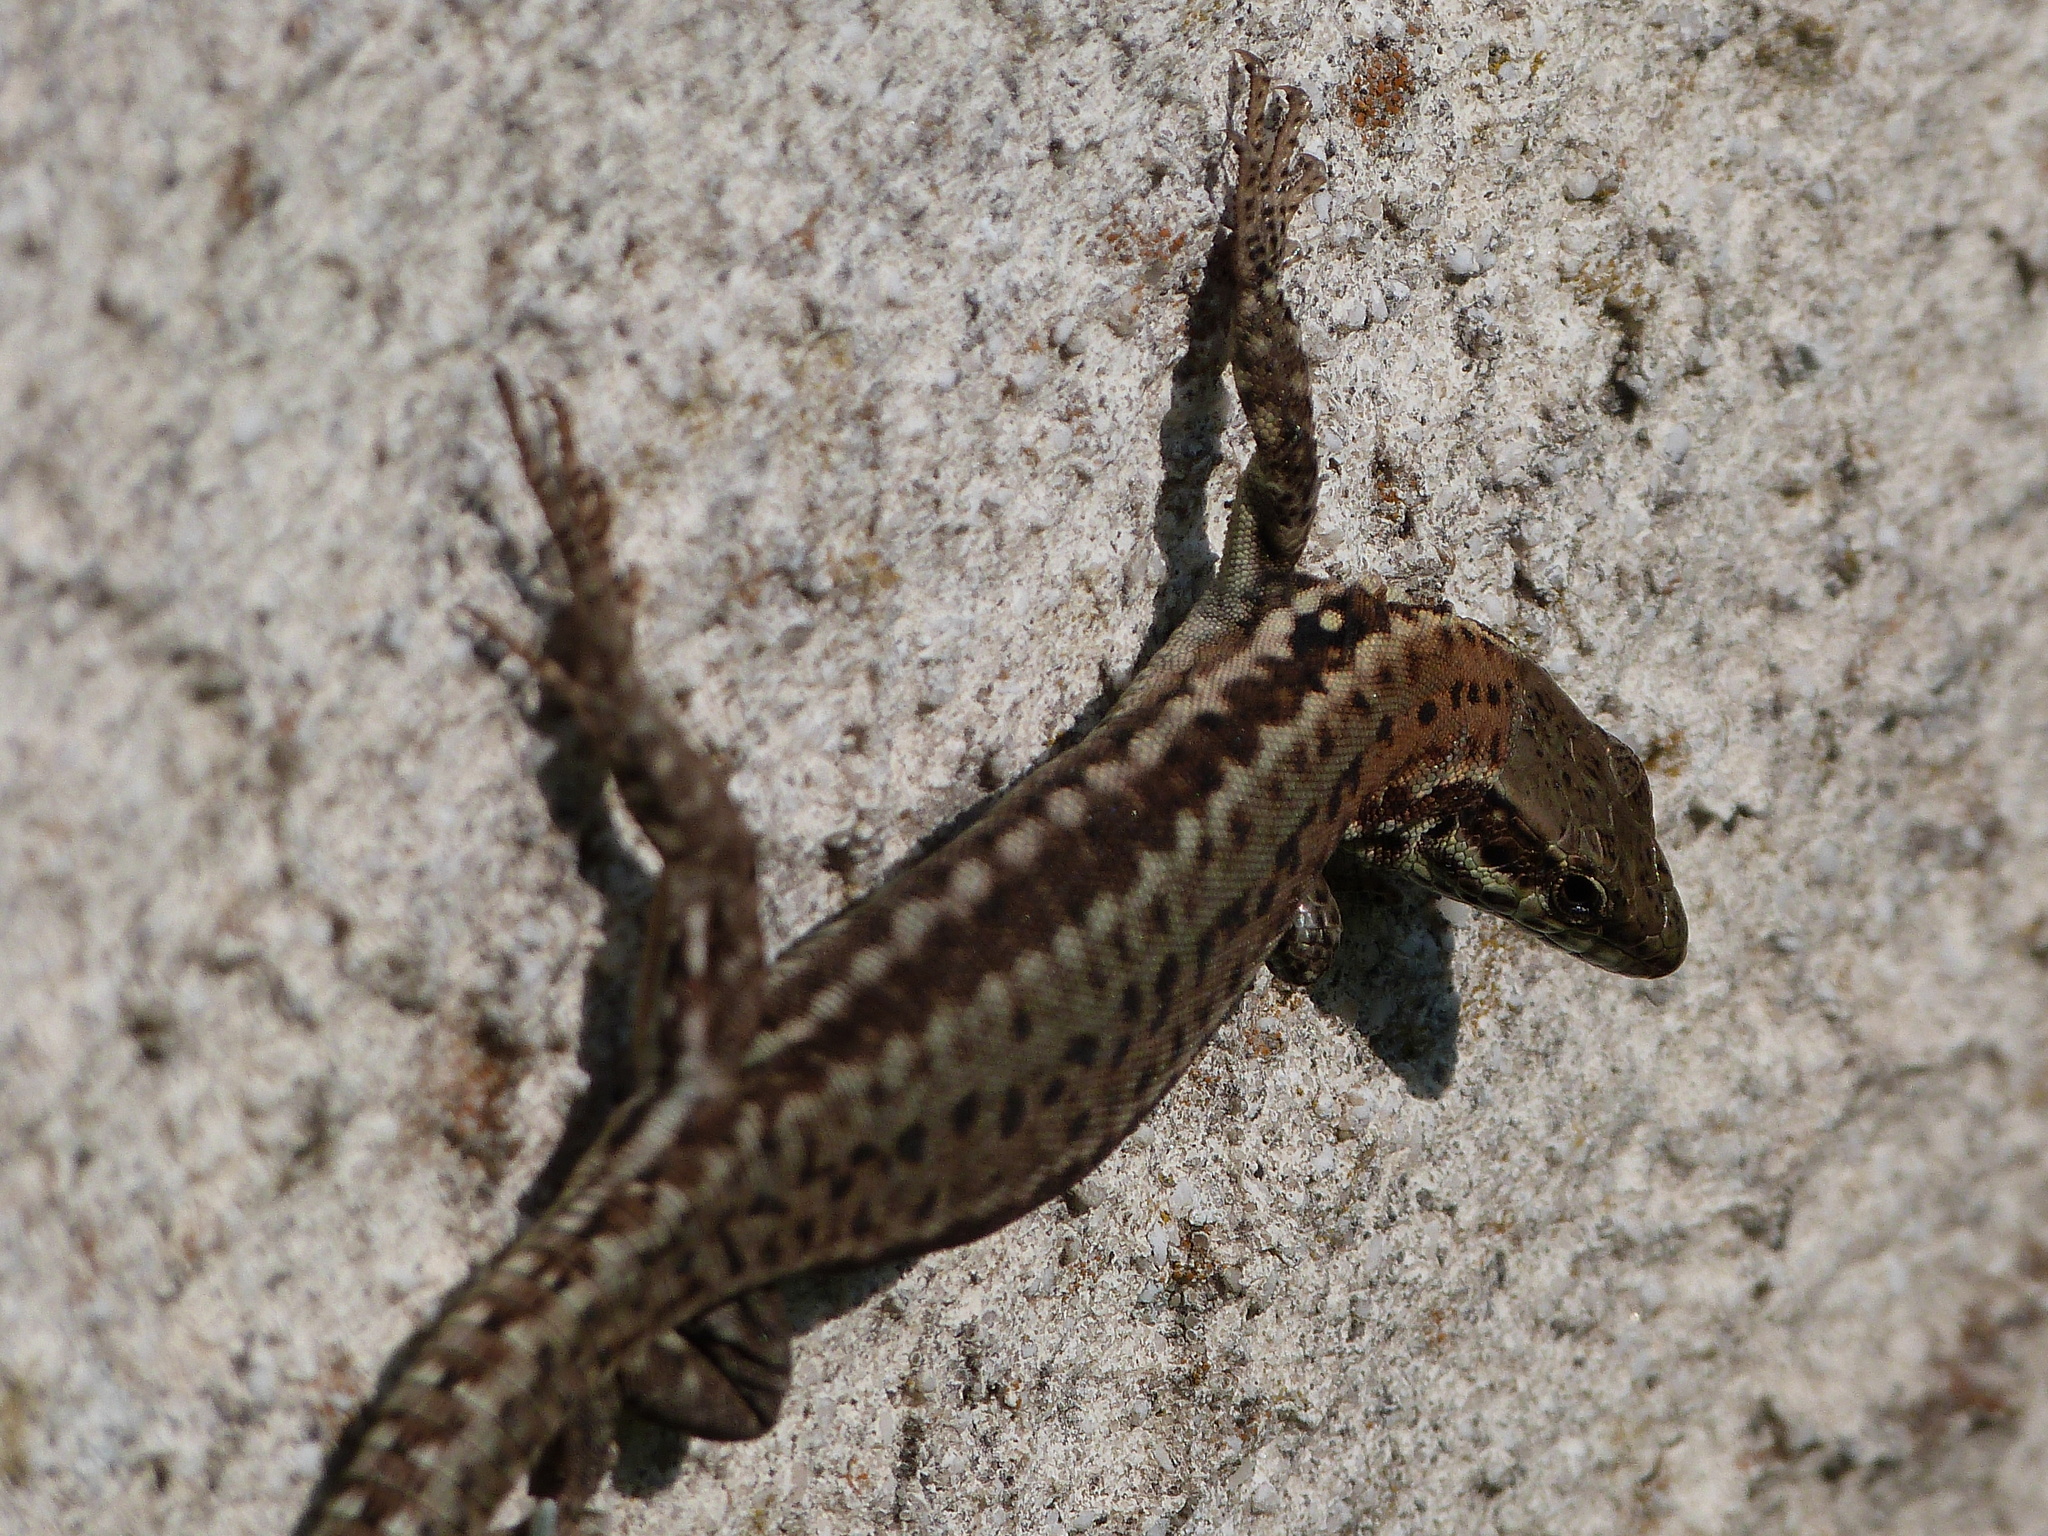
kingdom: Animalia
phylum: Chordata
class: Squamata
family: Lacertidae
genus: Podarcis
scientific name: Podarcis muralis
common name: Common wall lizard
